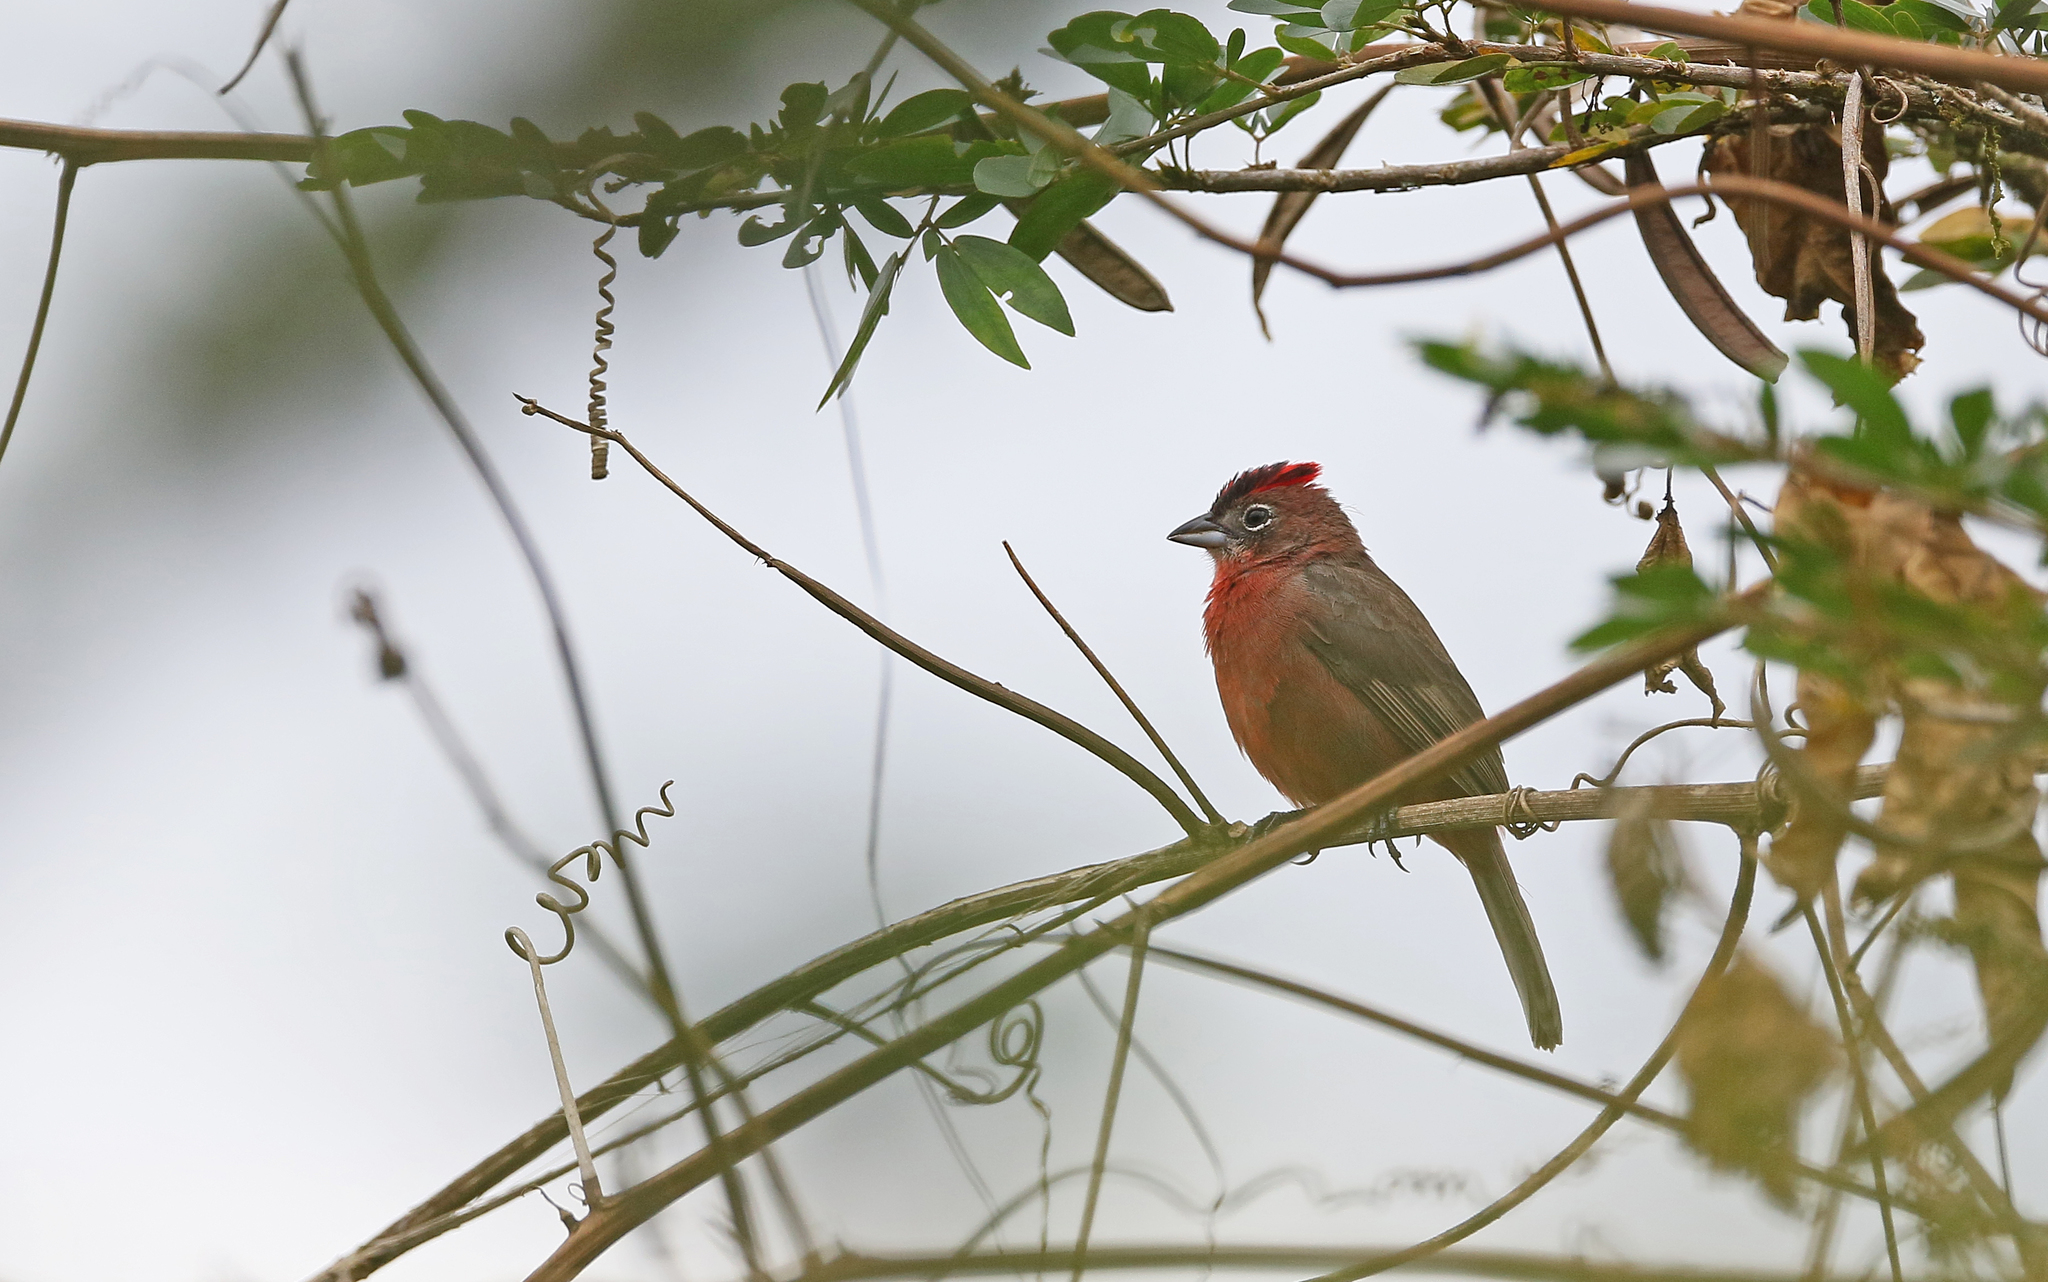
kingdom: Animalia
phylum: Chordata
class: Aves
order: Passeriformes
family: Thraupidae
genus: Coryphospingus
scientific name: Coryphospingus cucullatus
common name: Red pileated finch
